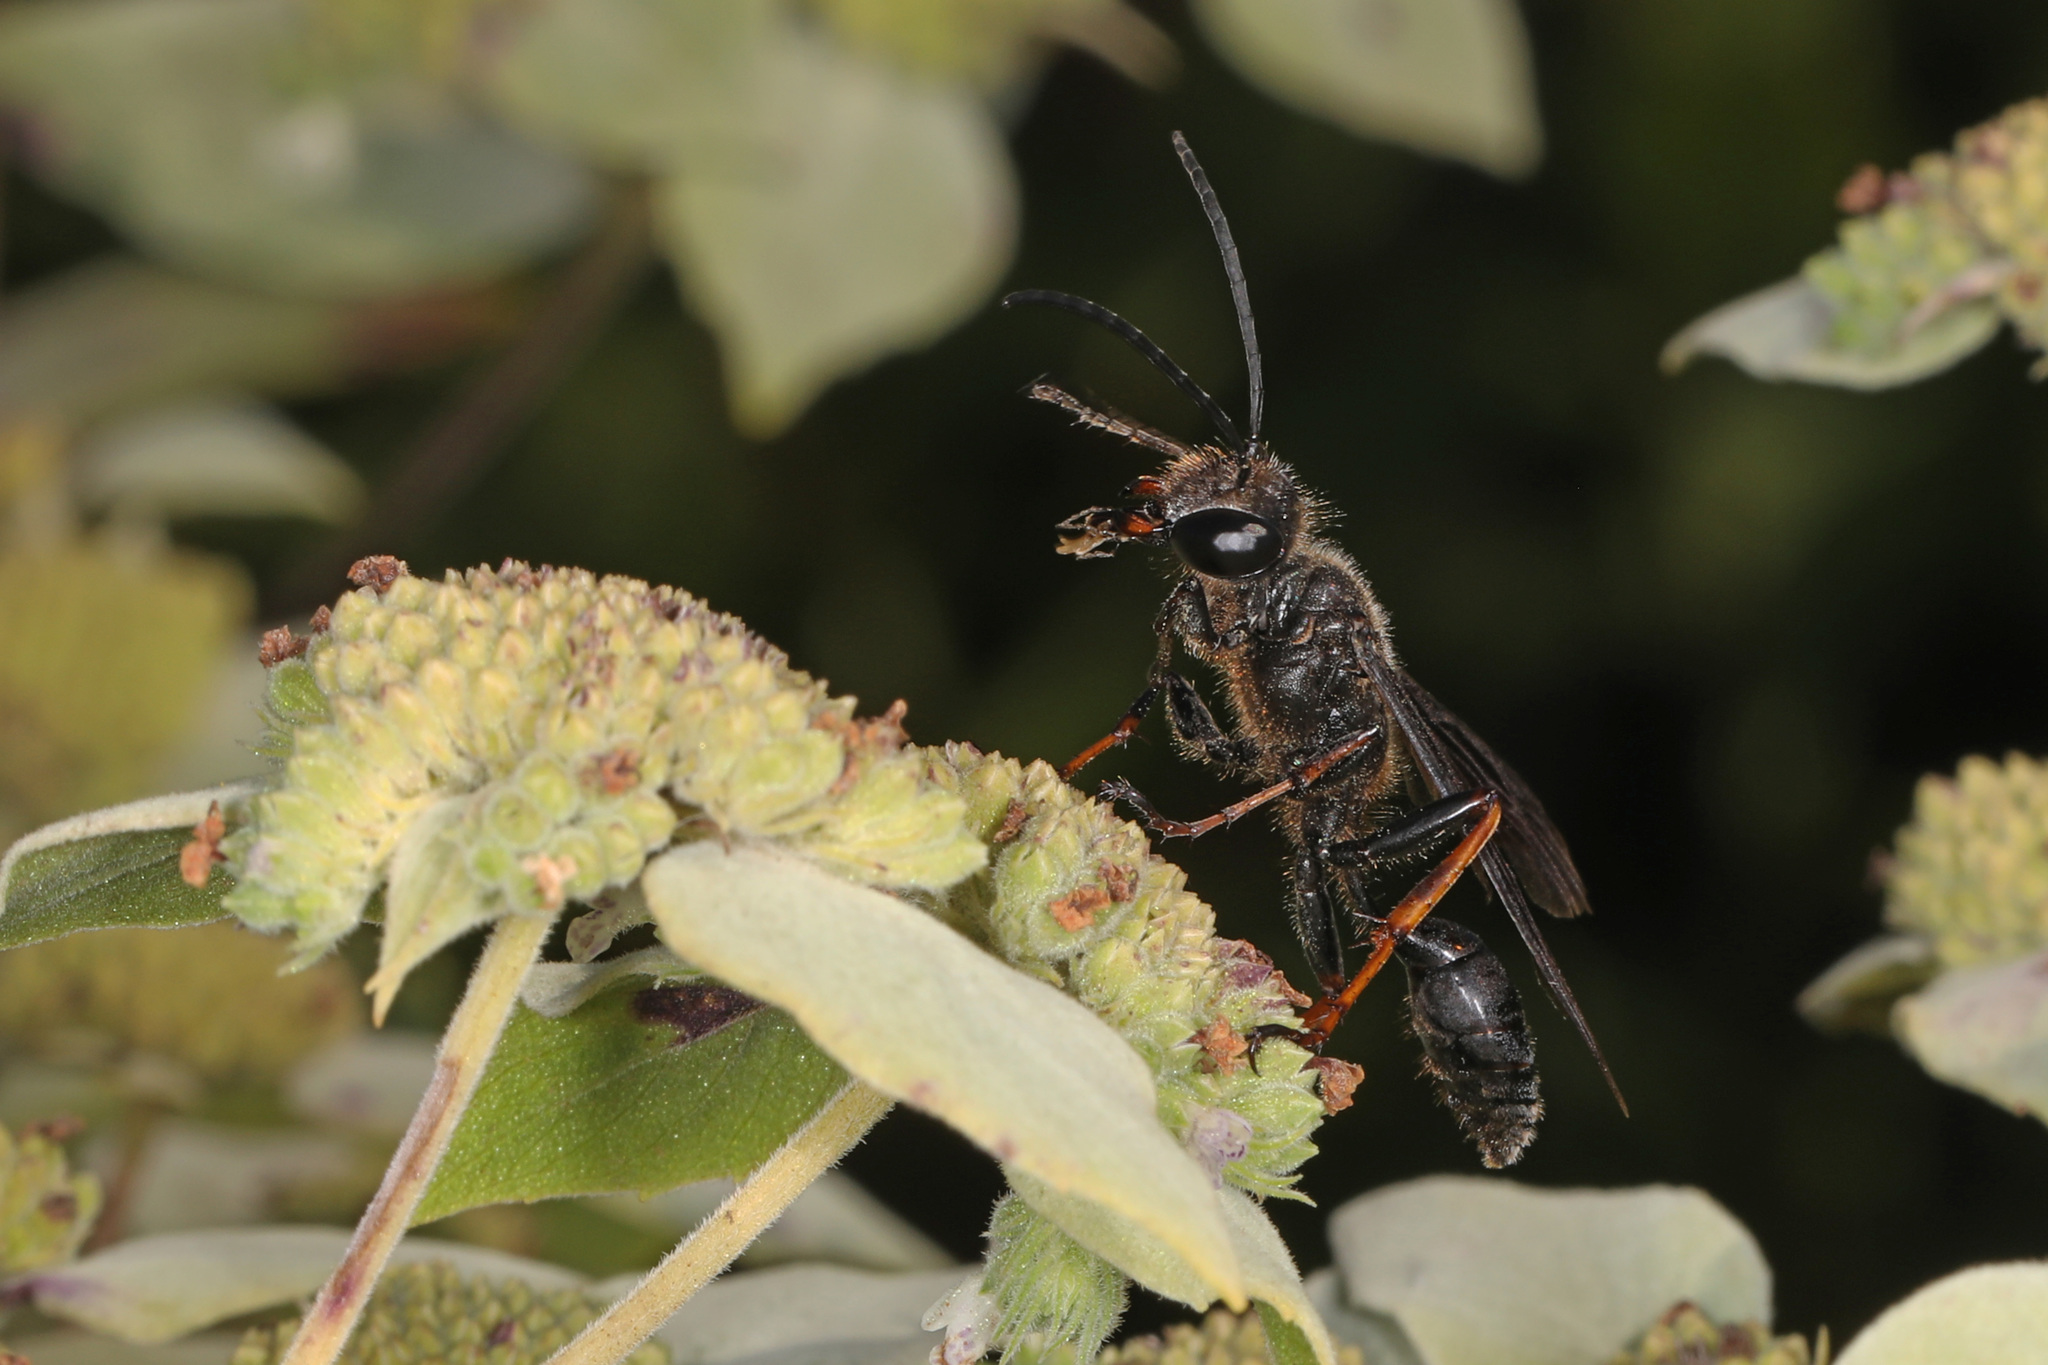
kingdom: Animalia
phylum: Arthropoda
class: Insecta
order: Hymenoptera
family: Sphecidae
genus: Sphex
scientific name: Sphex nudus
